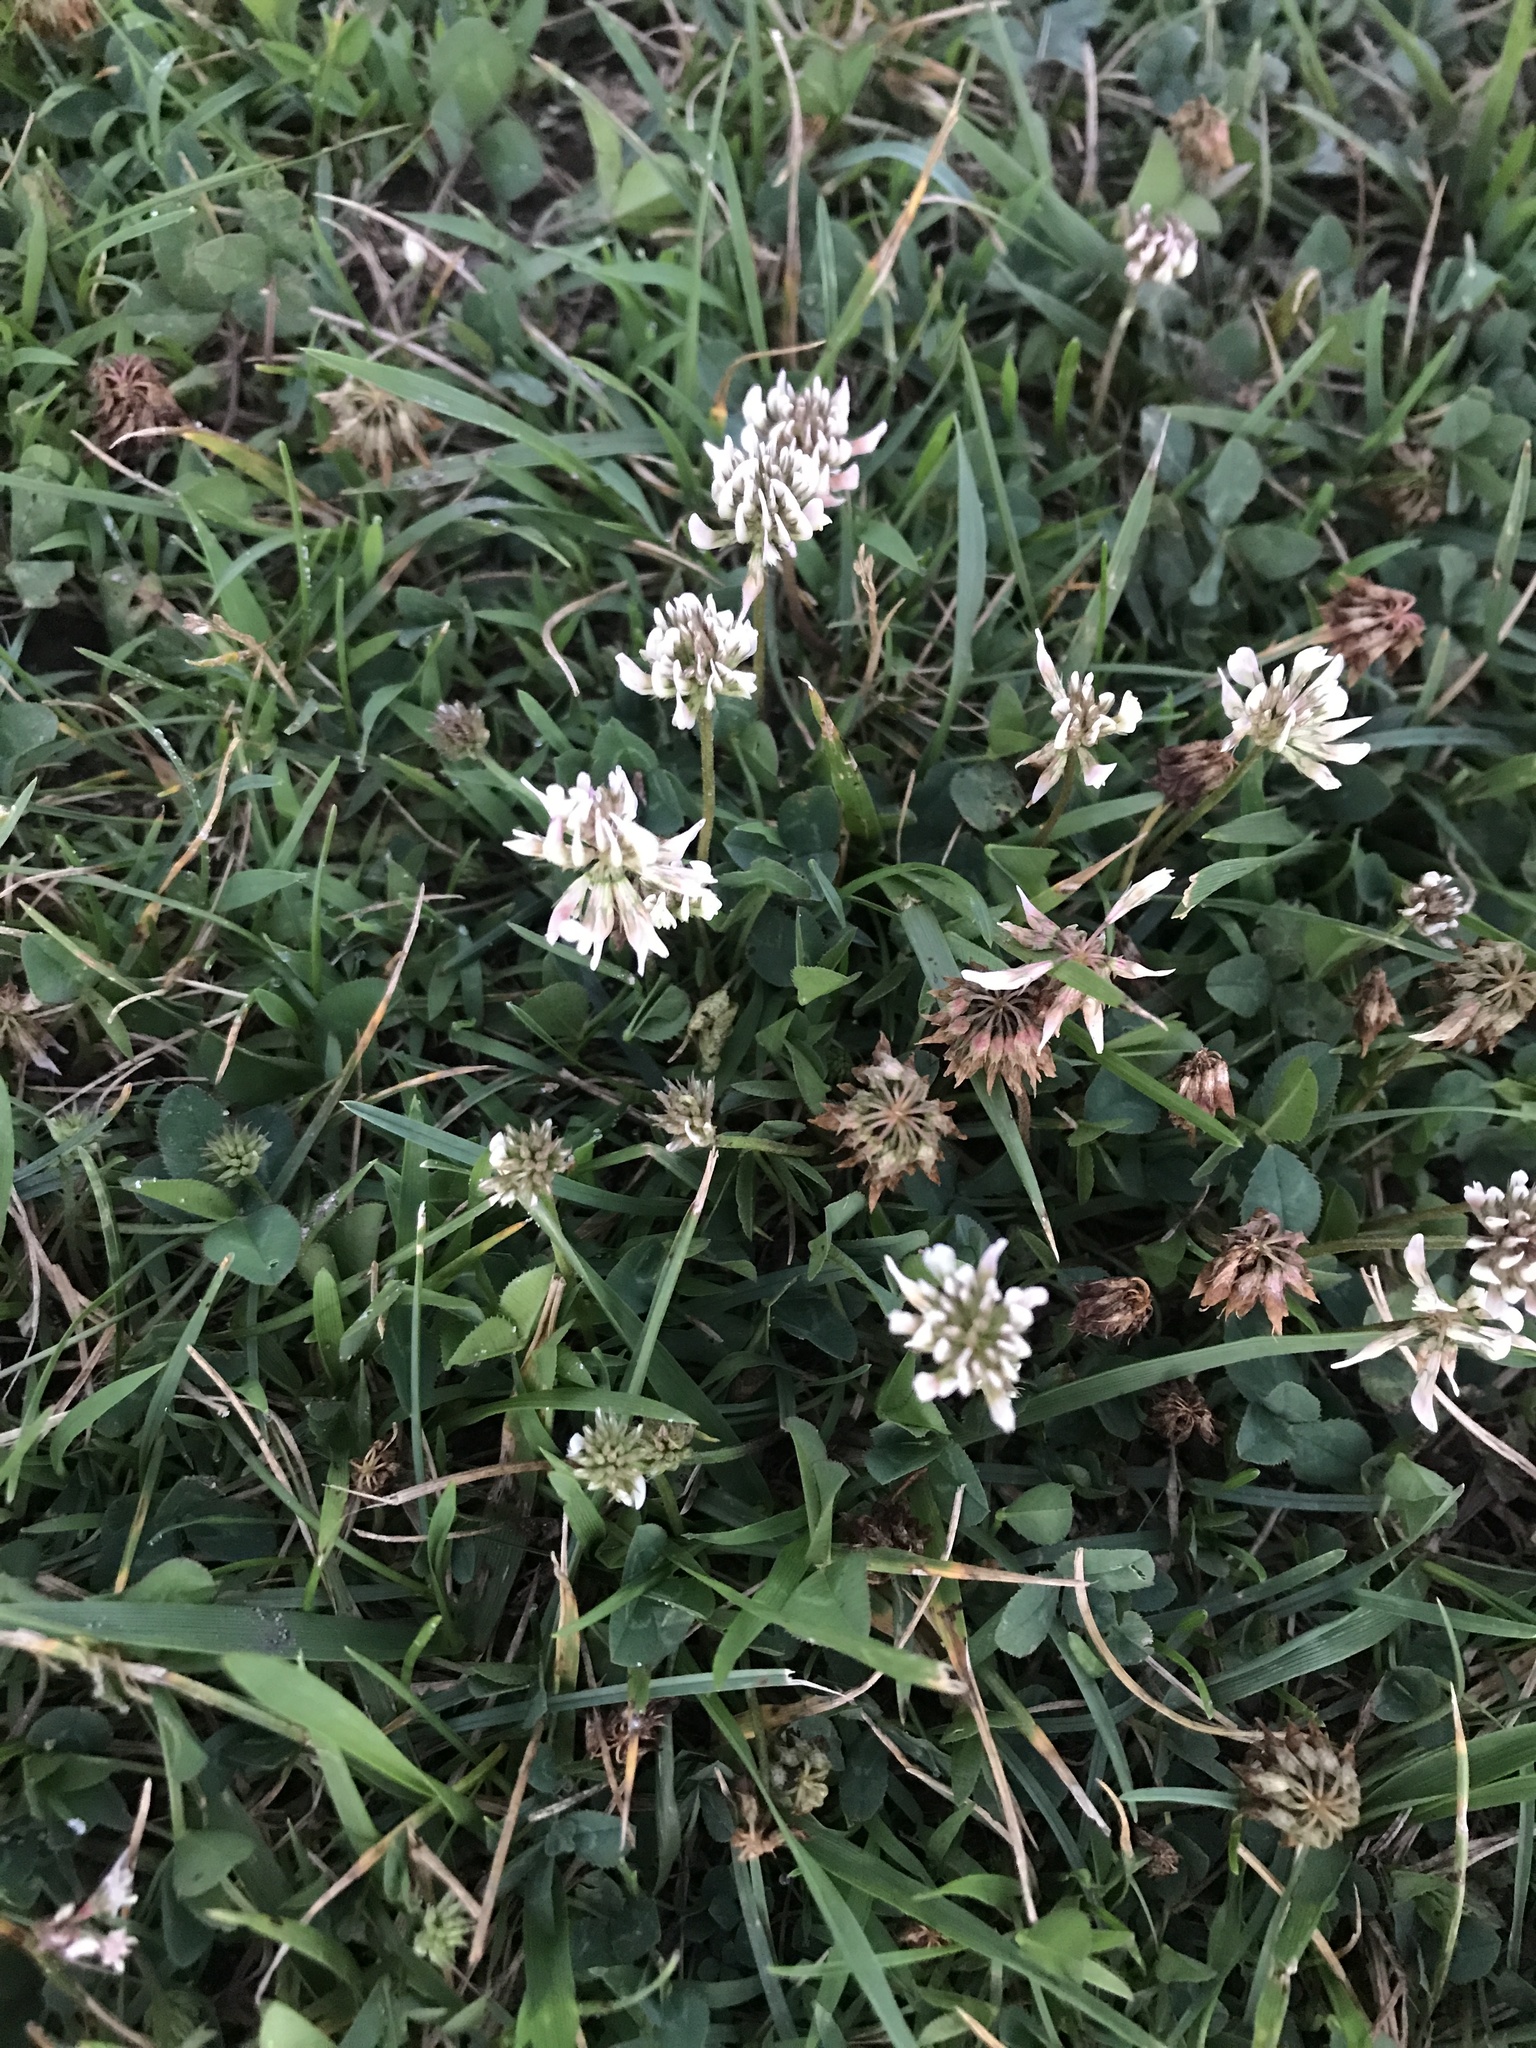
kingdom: Plantae
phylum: Tracheophyta
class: Magnoliopsida
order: Fabales
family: Fabaceae
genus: Trifolium
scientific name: Trifolium repens
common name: White clover
